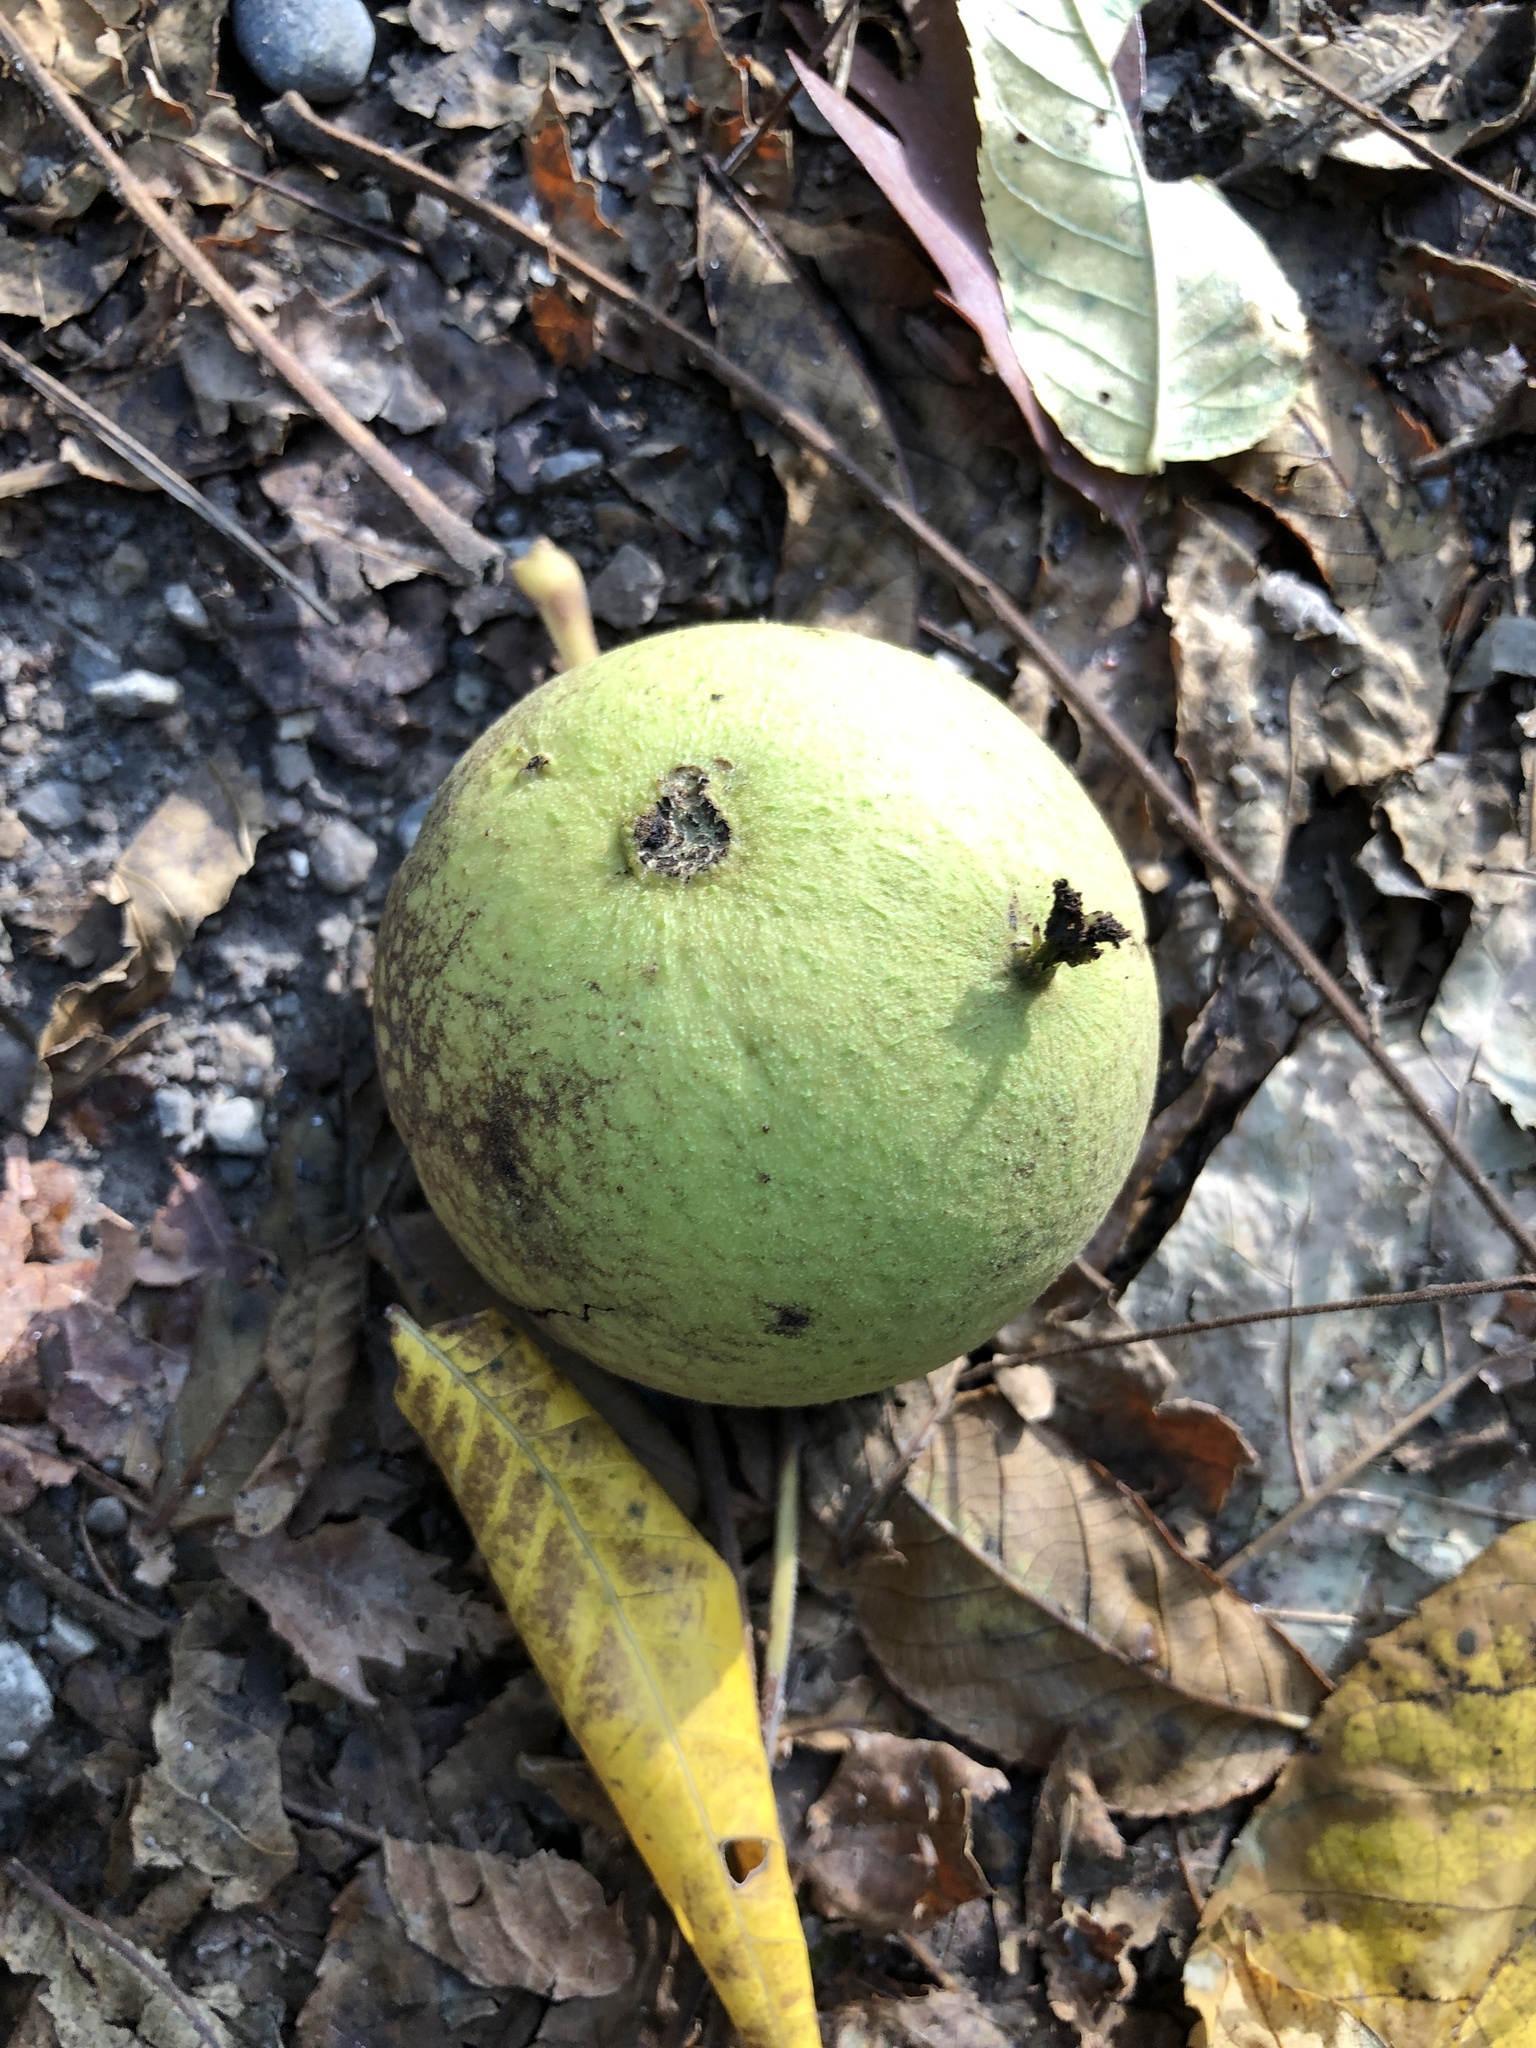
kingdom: Plantae
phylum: Tracheophyta
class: Magnoliopsida
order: Fagales
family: Juglandaceae
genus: Juglans
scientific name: Juglans nigra
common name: Black walnut
